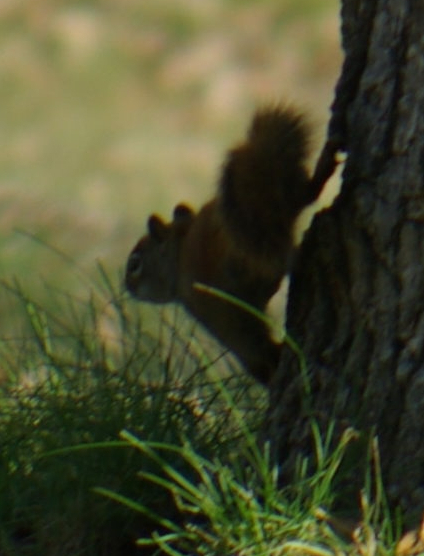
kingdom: Animalia
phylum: Chordata
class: Mammalia
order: Rodentia
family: Sciuridae
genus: Tamiasciurus
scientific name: Tamiasciurus hudsonicus
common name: Red squirrel
